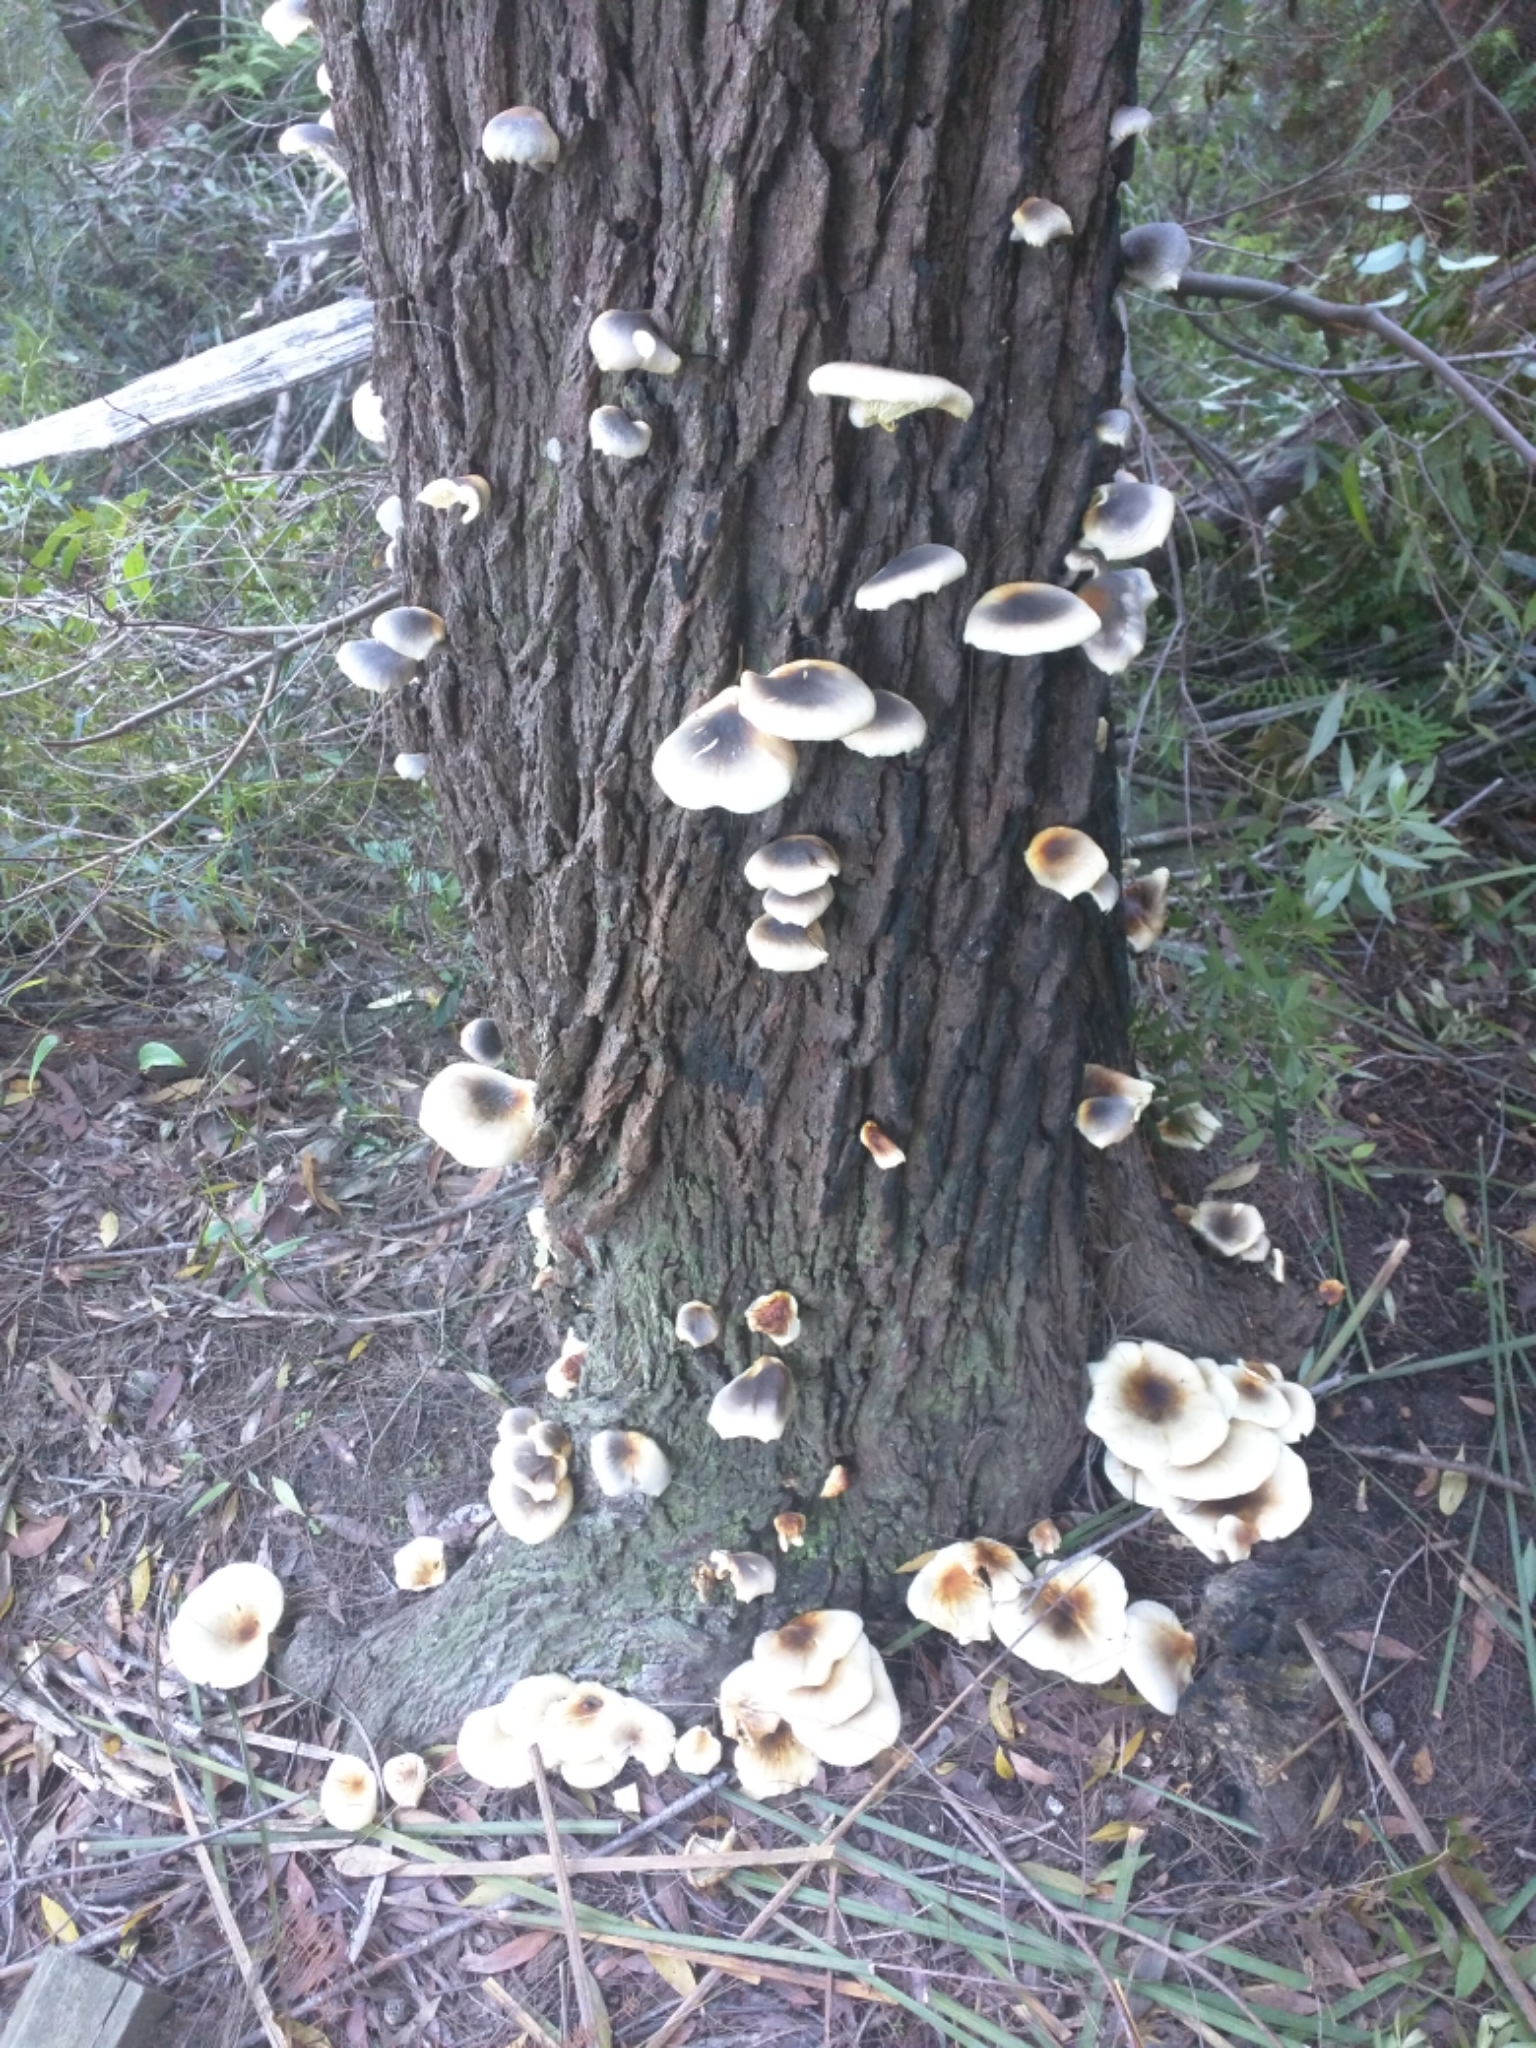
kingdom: Fungi
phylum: Basidiomycota
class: Agaricomycetes
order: Agaricales
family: Omphalotaceae
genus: Omphalotus
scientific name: Omphalotus nidiformis
